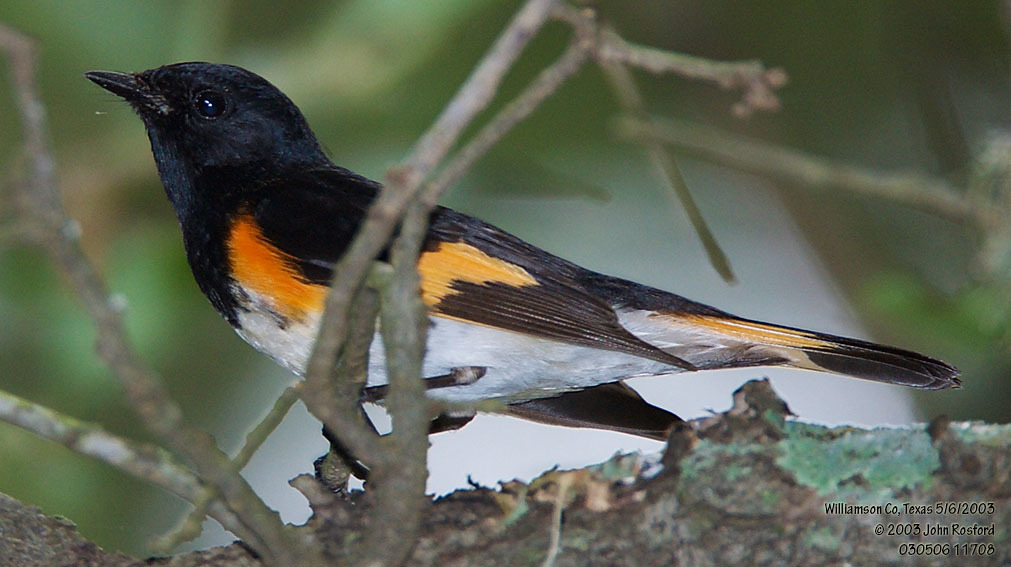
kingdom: Animalia
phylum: Chordata
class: Aves
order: Passeriformes
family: Parulidae
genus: Setophaga
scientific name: Setophaga ruticilla
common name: American redstart
